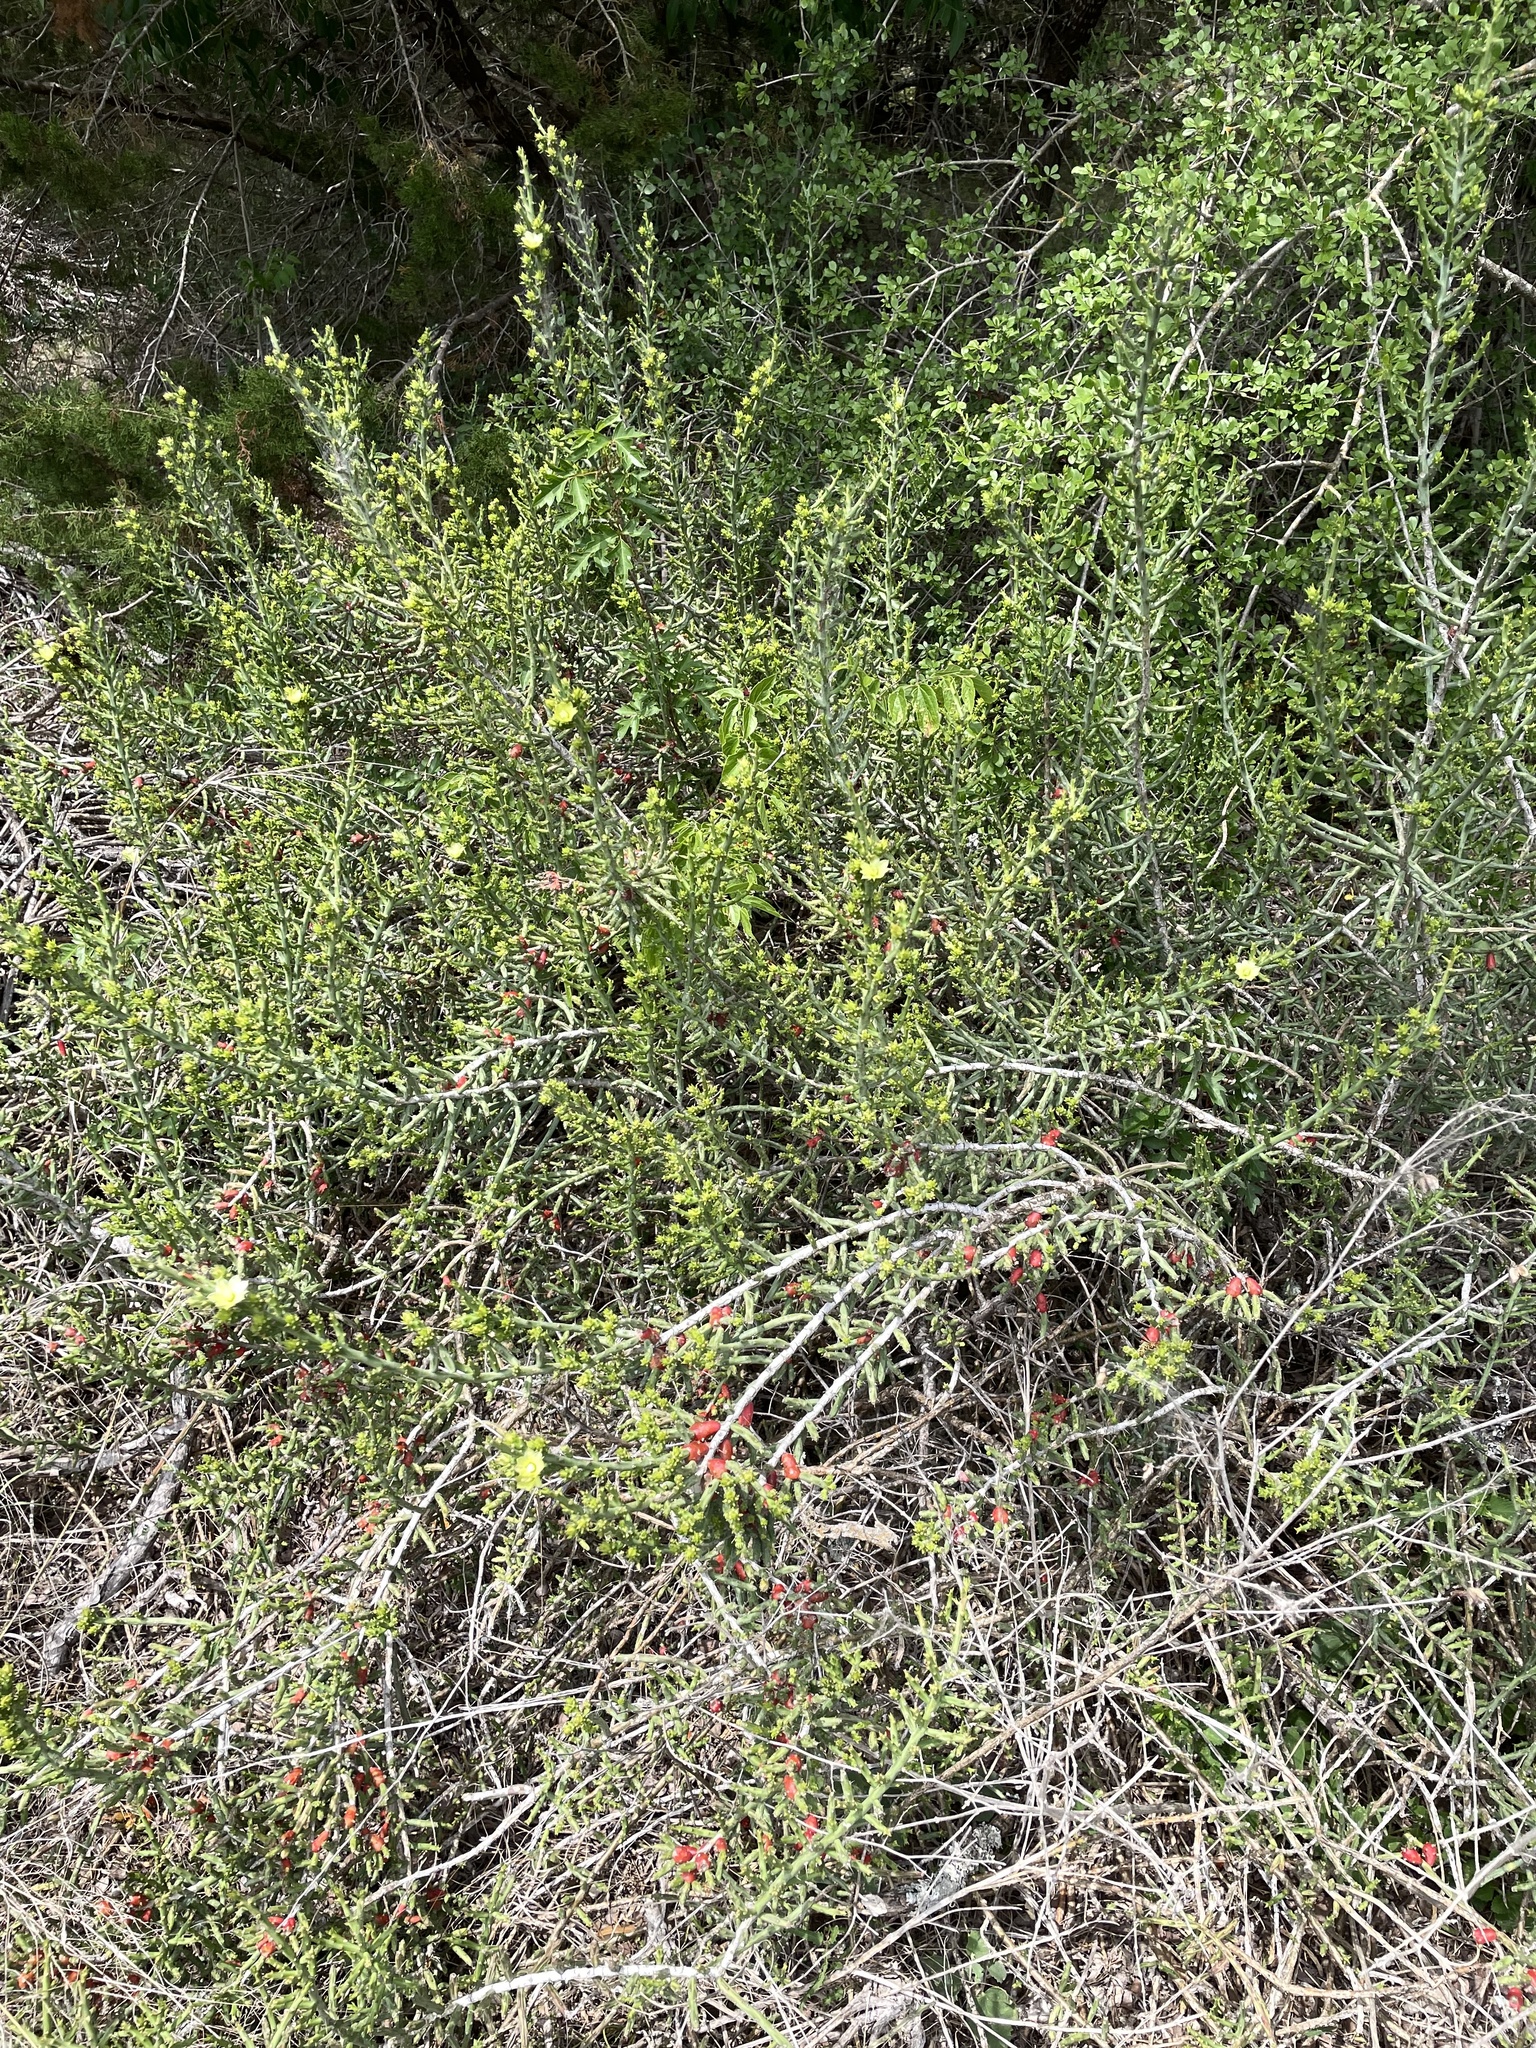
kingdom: Plantae
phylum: Tracheophyta
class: Magnoliopsida
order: Caryophyllales
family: Cactaceae
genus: Cylindropuntia
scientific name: Cylindropuntia leptocaulis
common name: Christmas cactus
